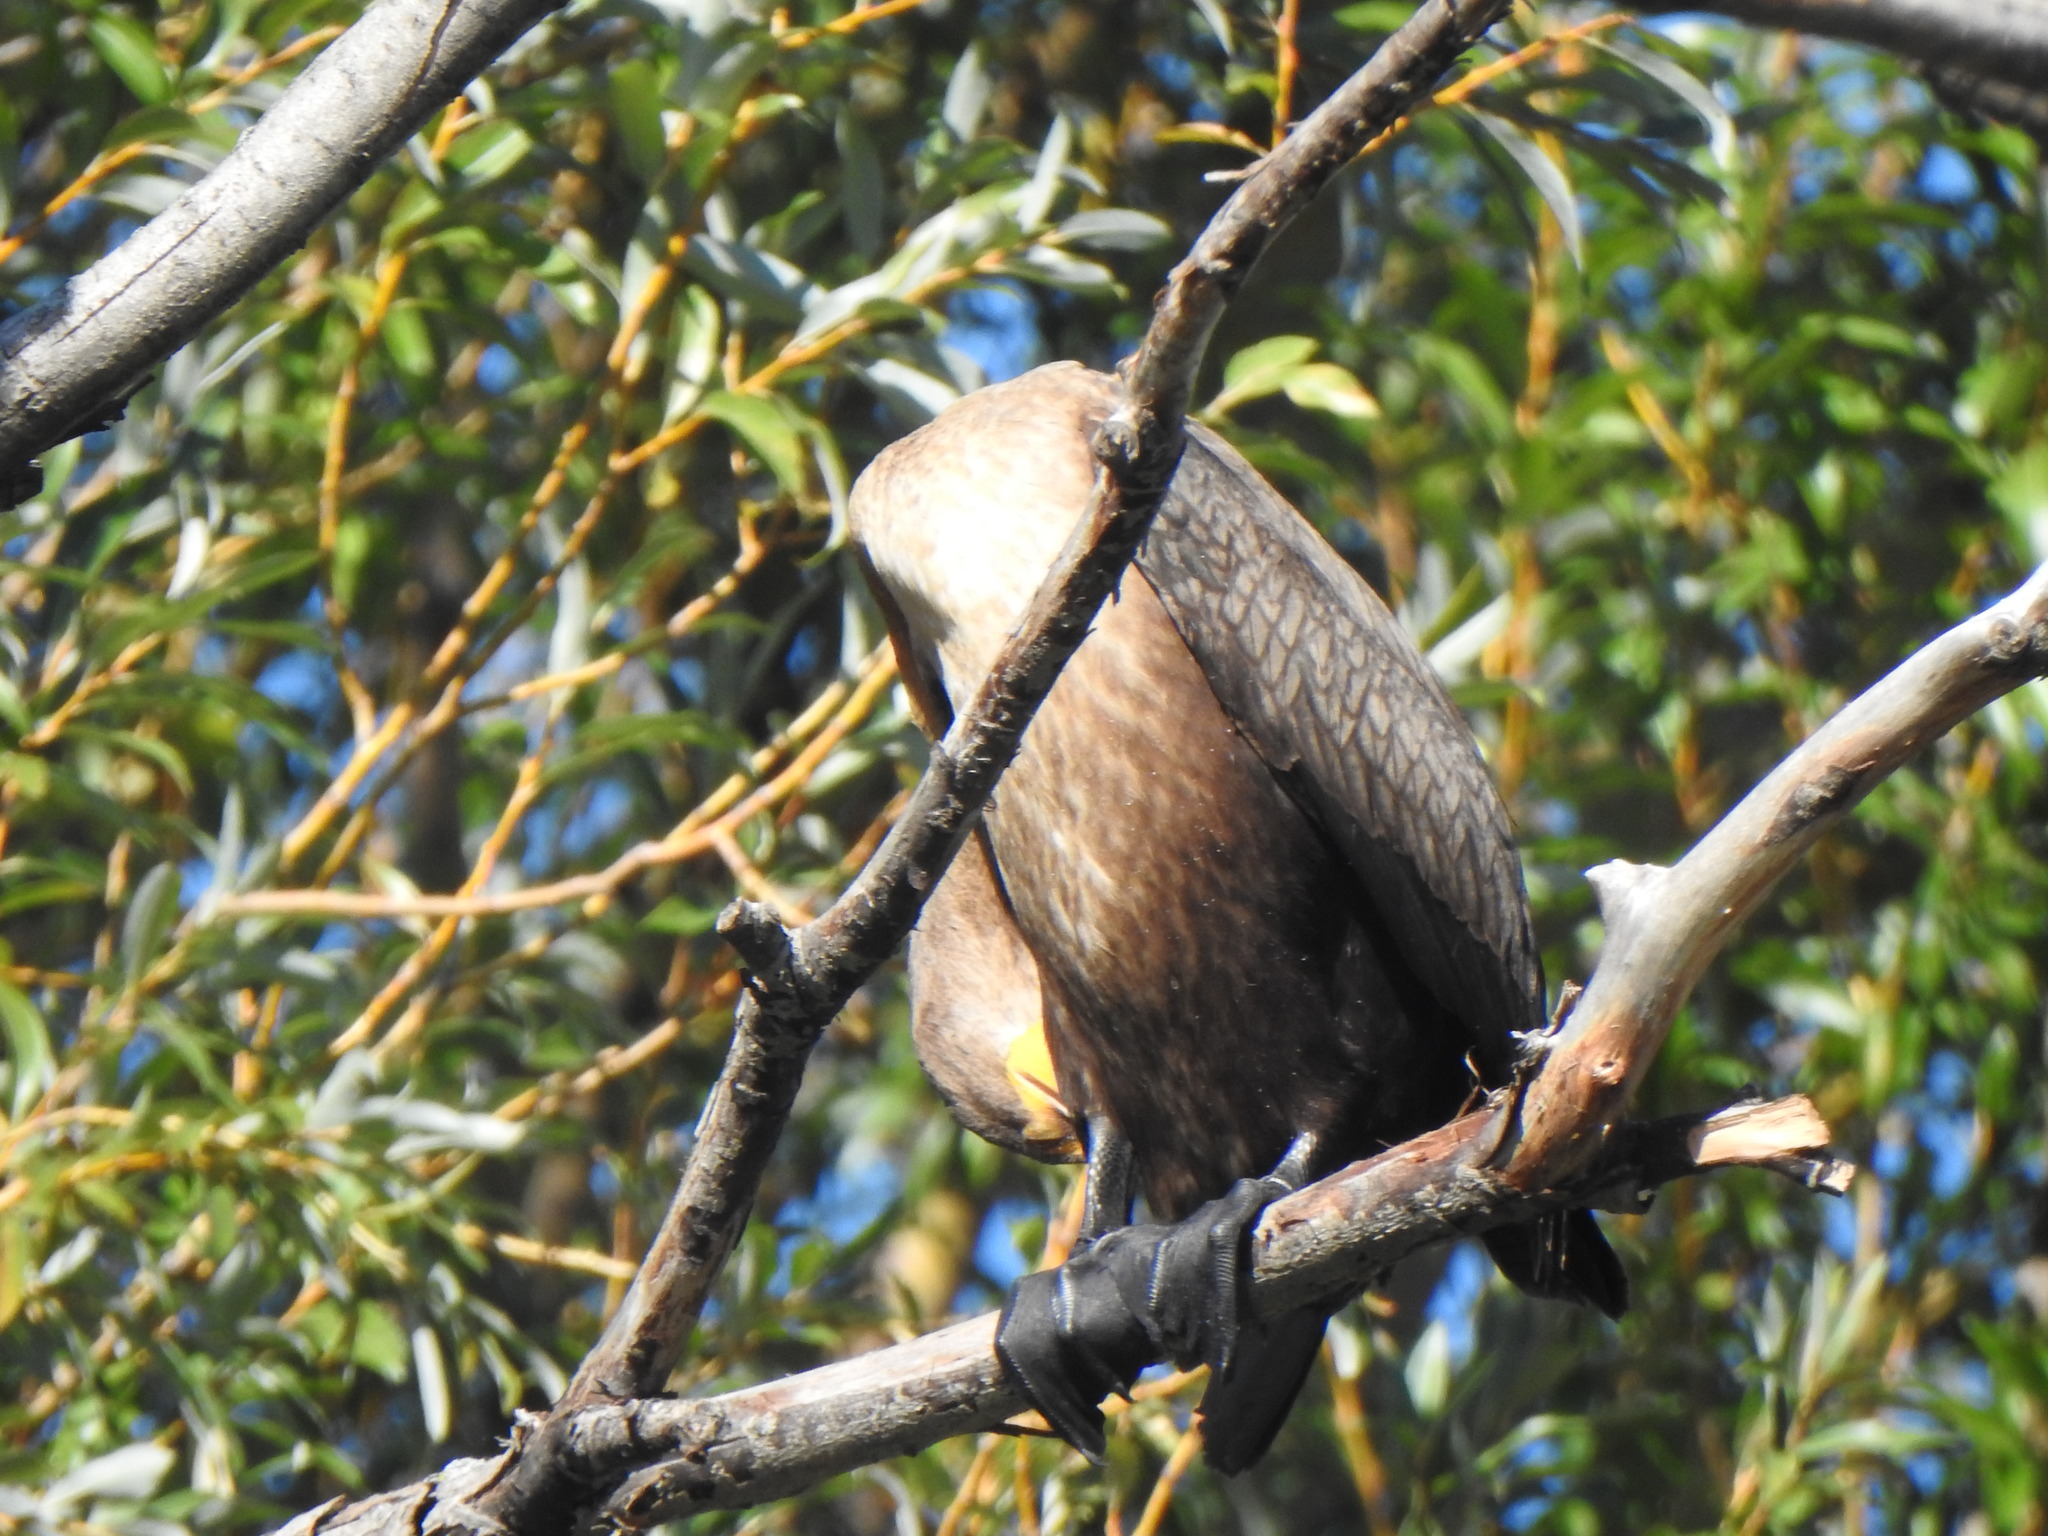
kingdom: Animalia
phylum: Chordata
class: Aves
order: Suliformes
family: Phalacrocoracidae
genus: Phalacrocorax
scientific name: Phalacrocorax auritus
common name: Double-crested cormorant
